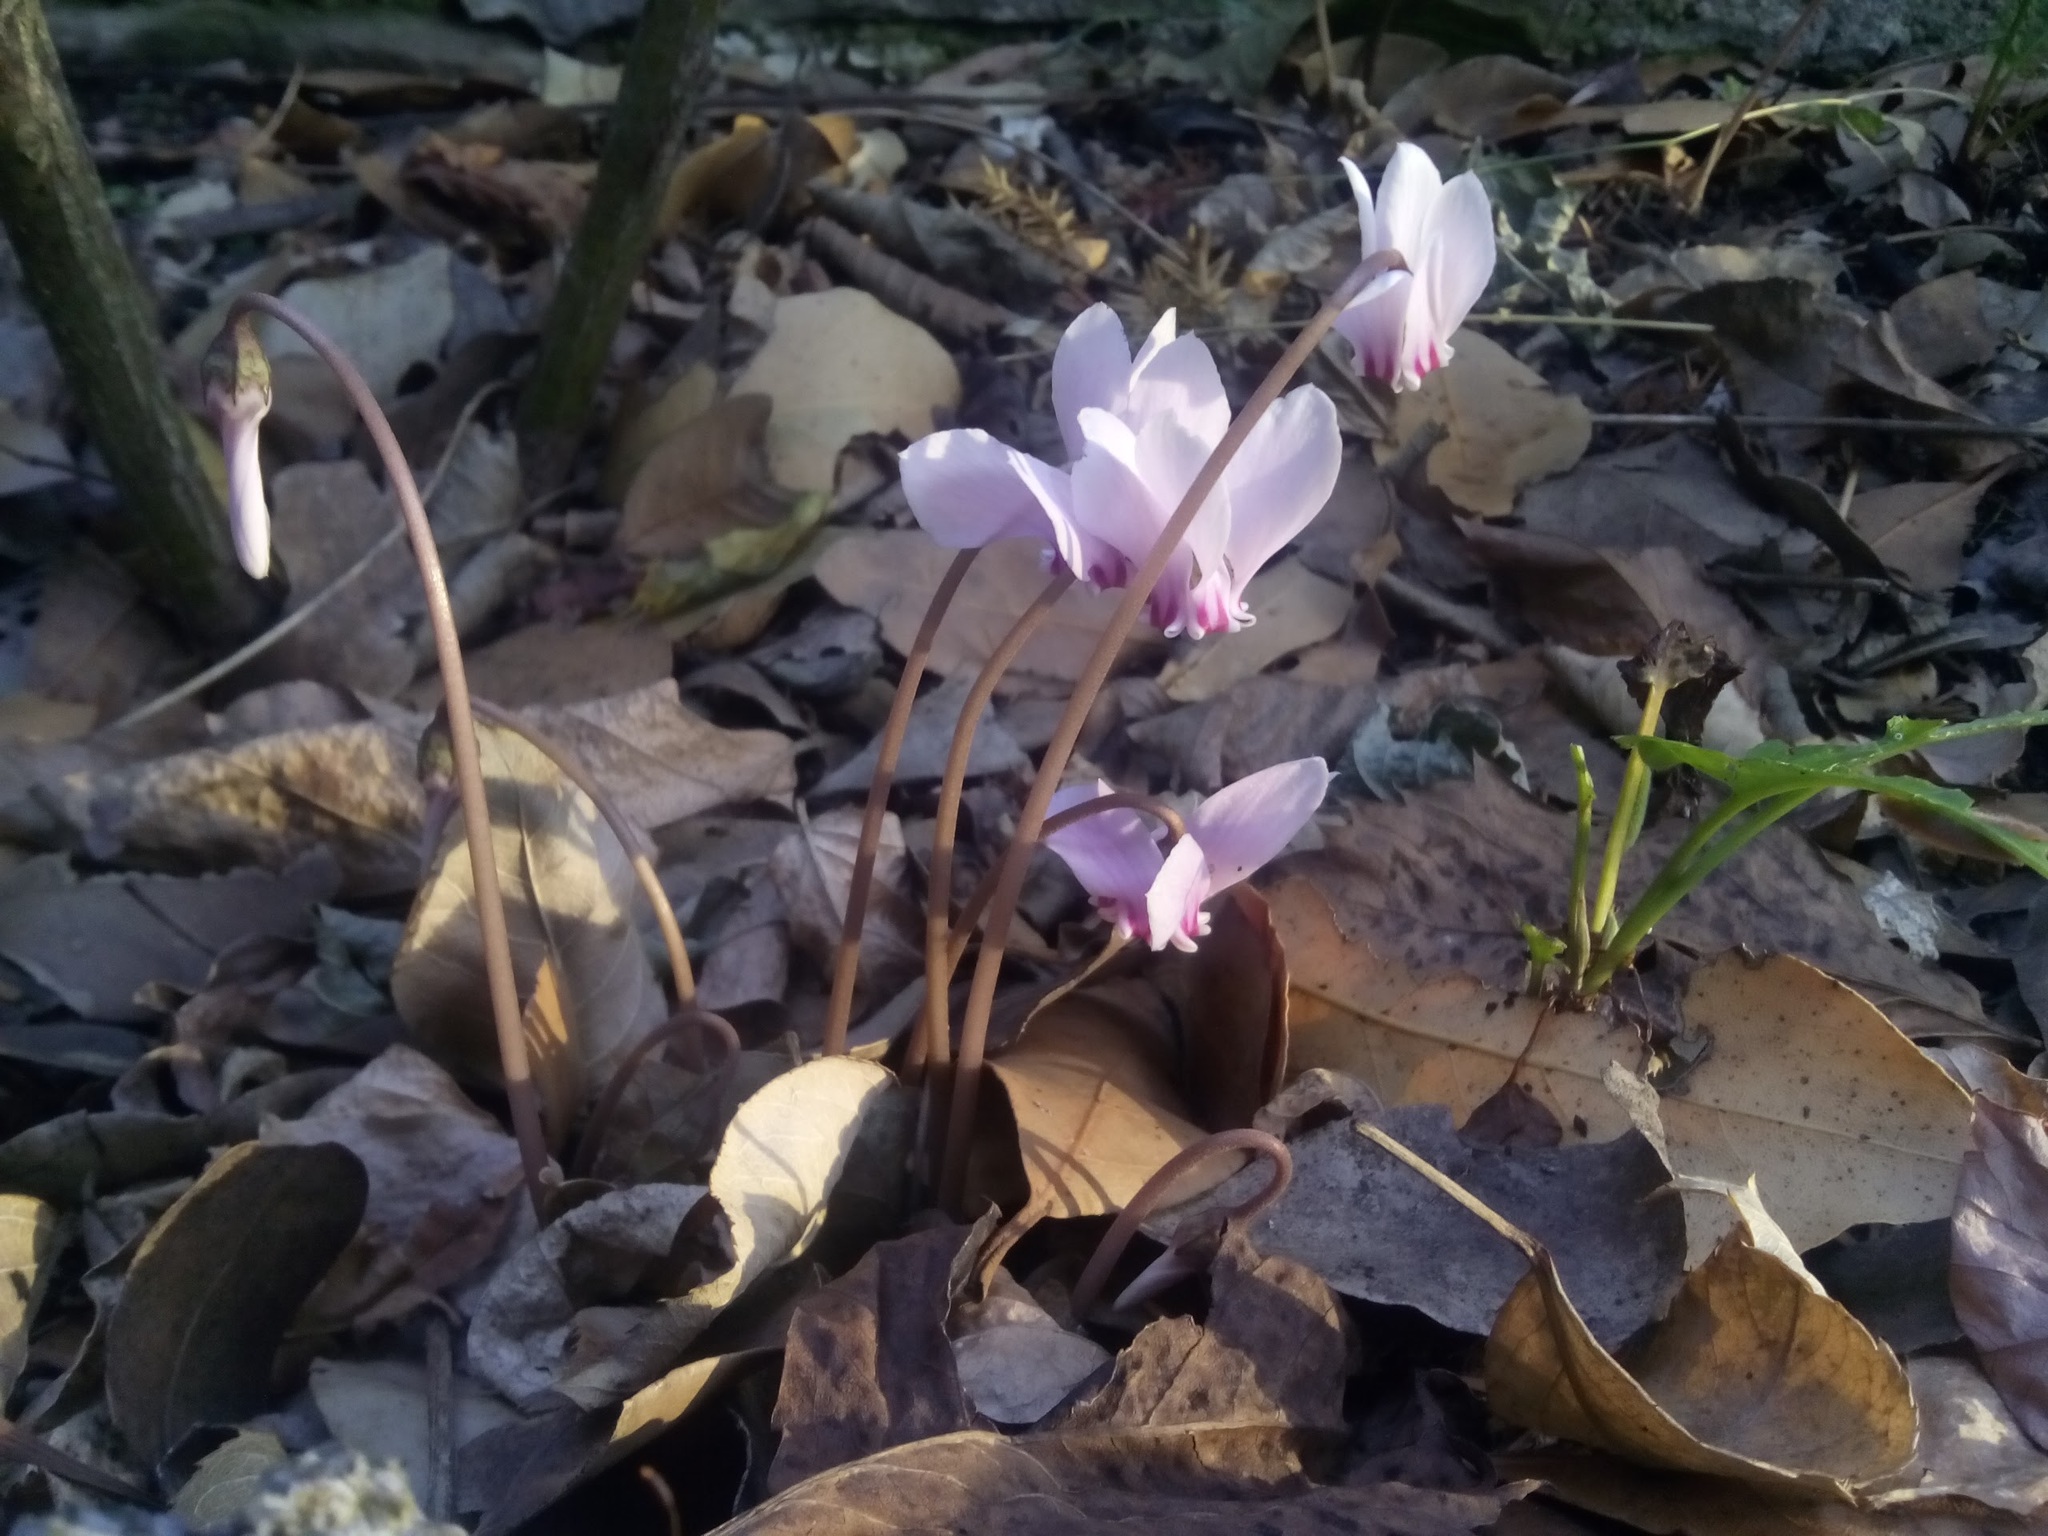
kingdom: Plantae
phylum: Tracheophyta
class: Magnoliopsida
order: Ericales
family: Primulaceae
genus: Cyclamen
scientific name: Cyclamen hederifolium
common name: Sowbread
